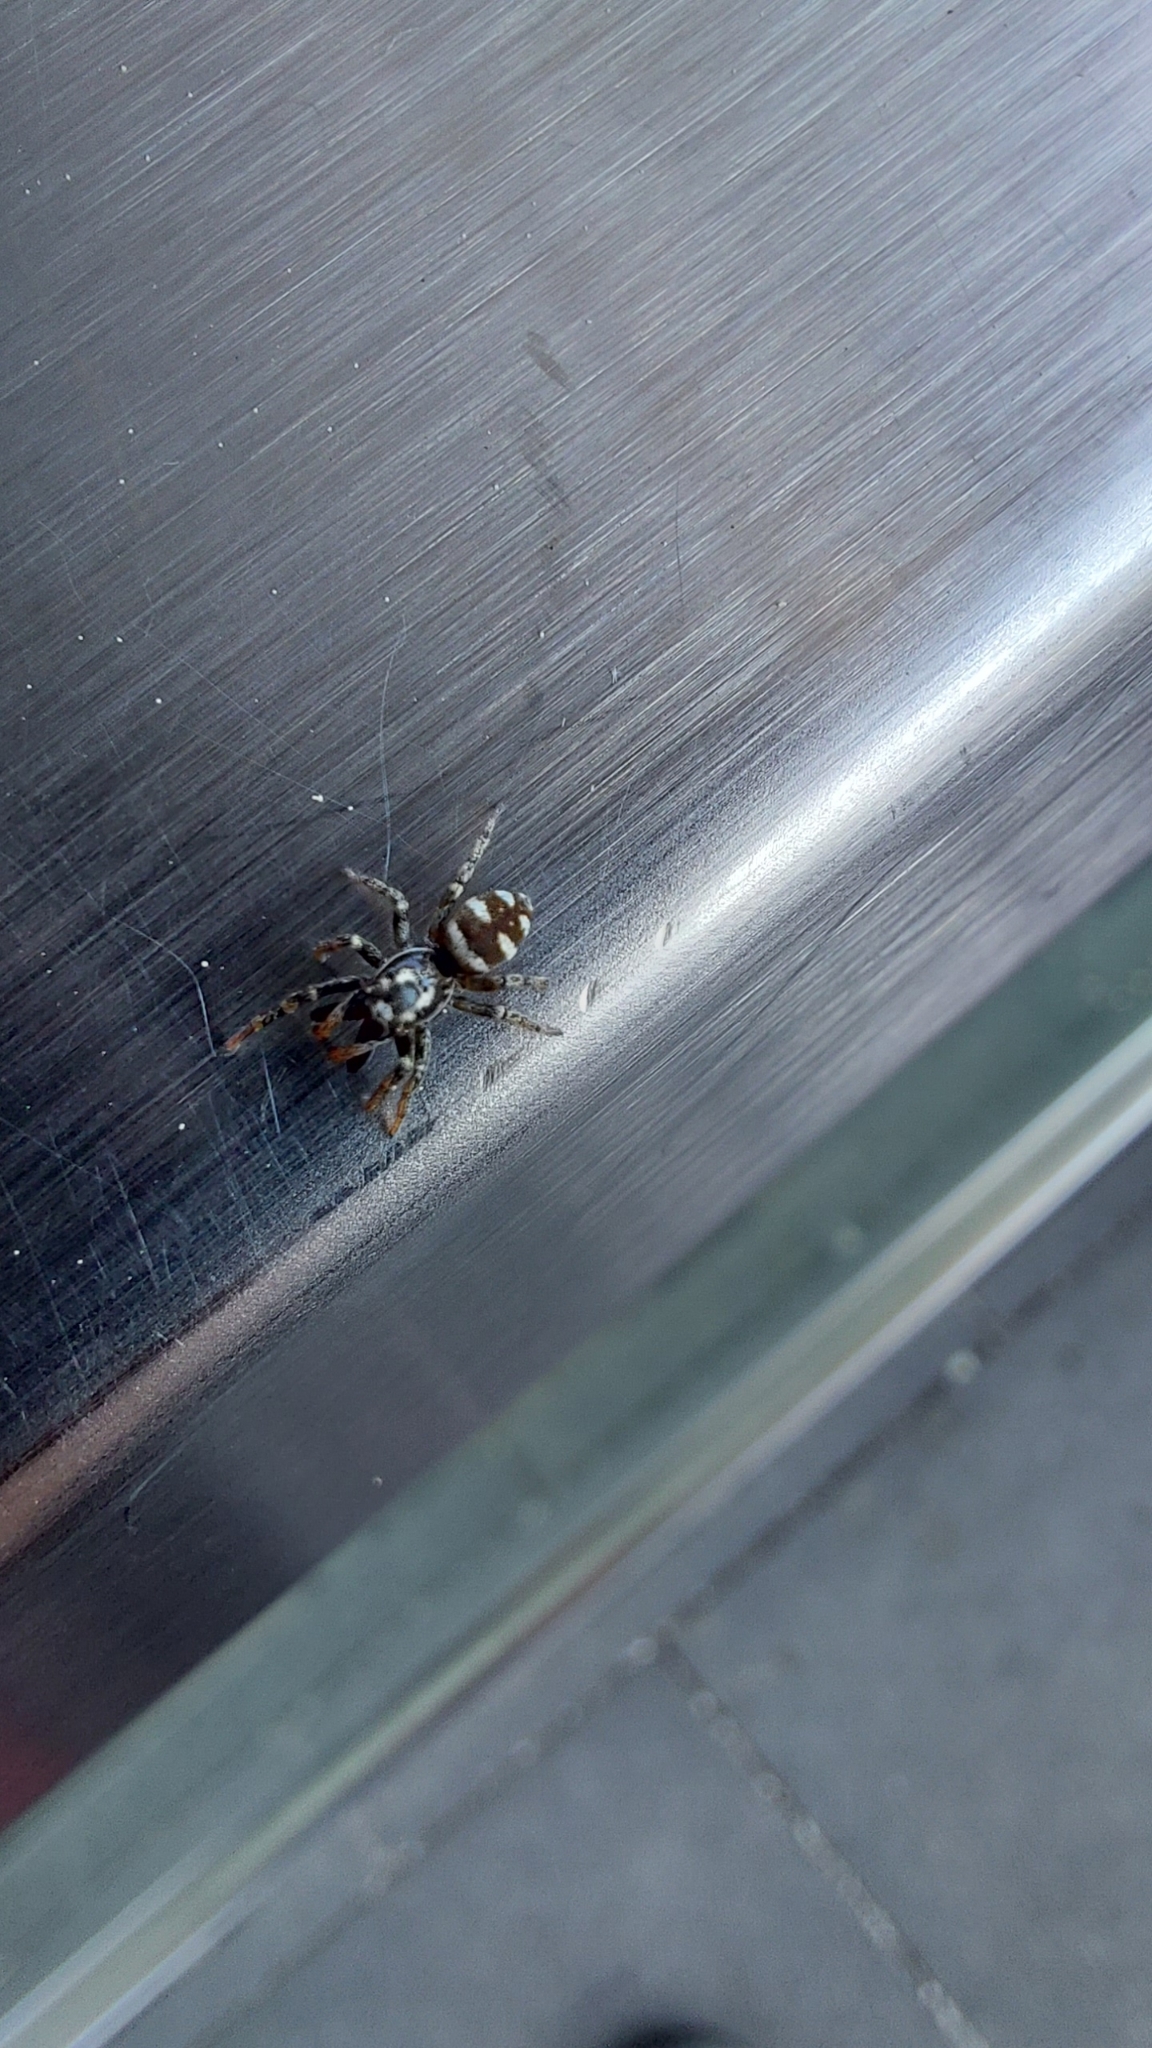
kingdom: Animalia
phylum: Arthropoda
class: Arachnida
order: Araneae
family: Salticidae
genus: Salticus
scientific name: Salticus scenicus
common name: Zebra jumper
